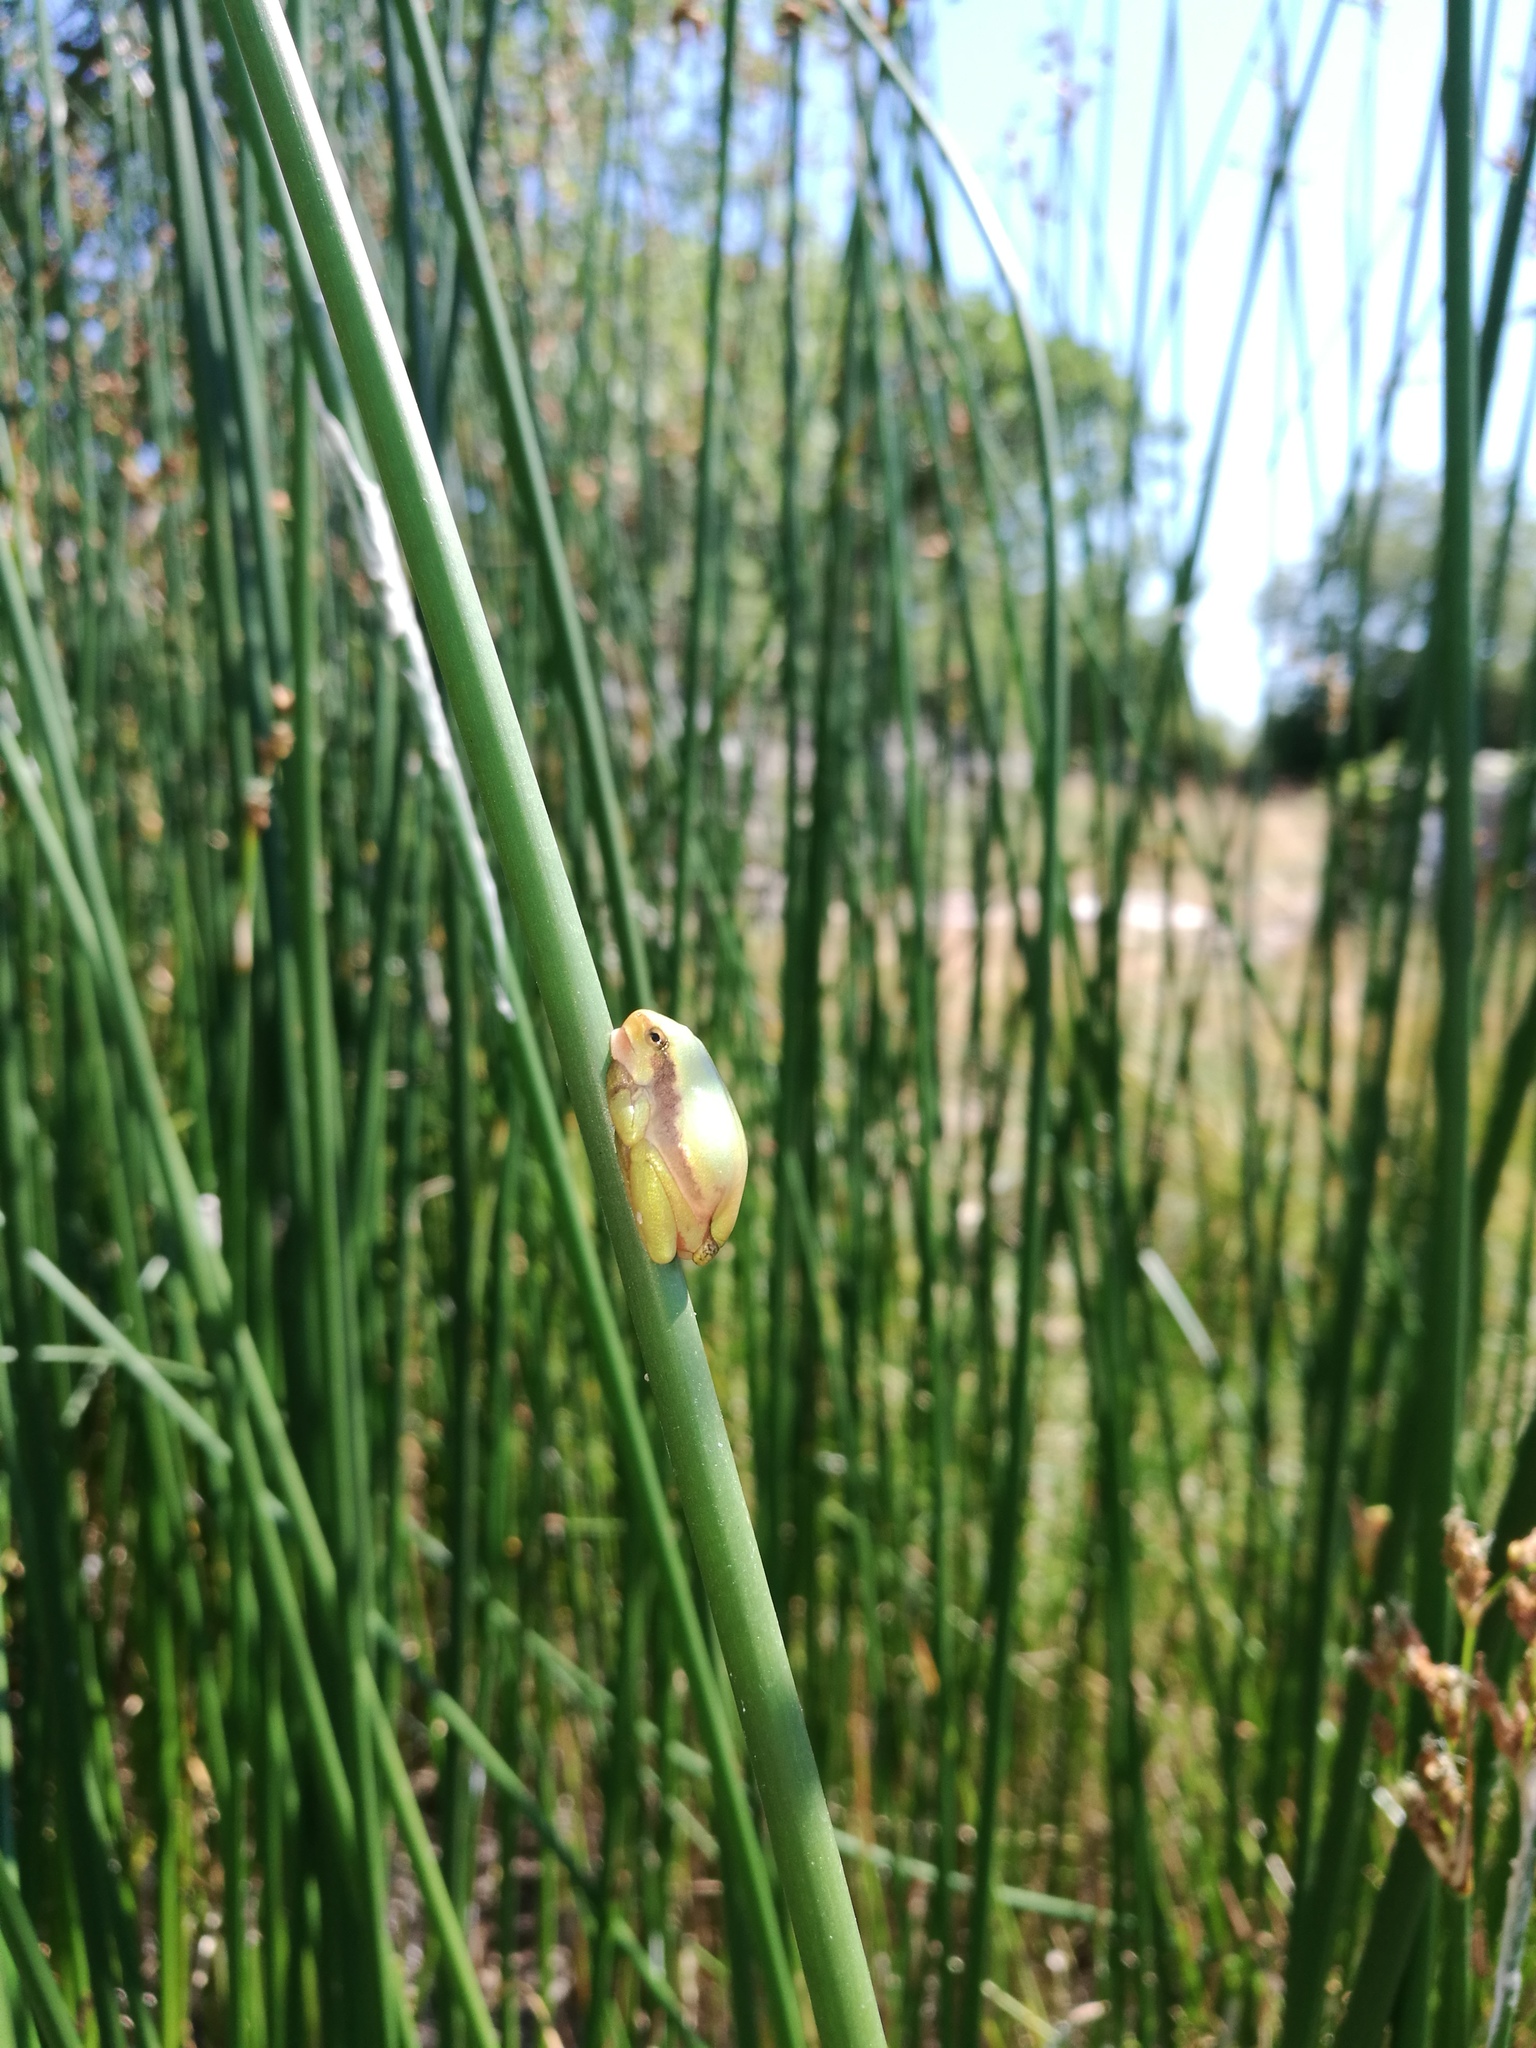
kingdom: Animalia
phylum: Chordata
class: Amphibia
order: Anura
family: Hylidae
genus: Hyla
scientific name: Hyla arborea
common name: Common tree frog
